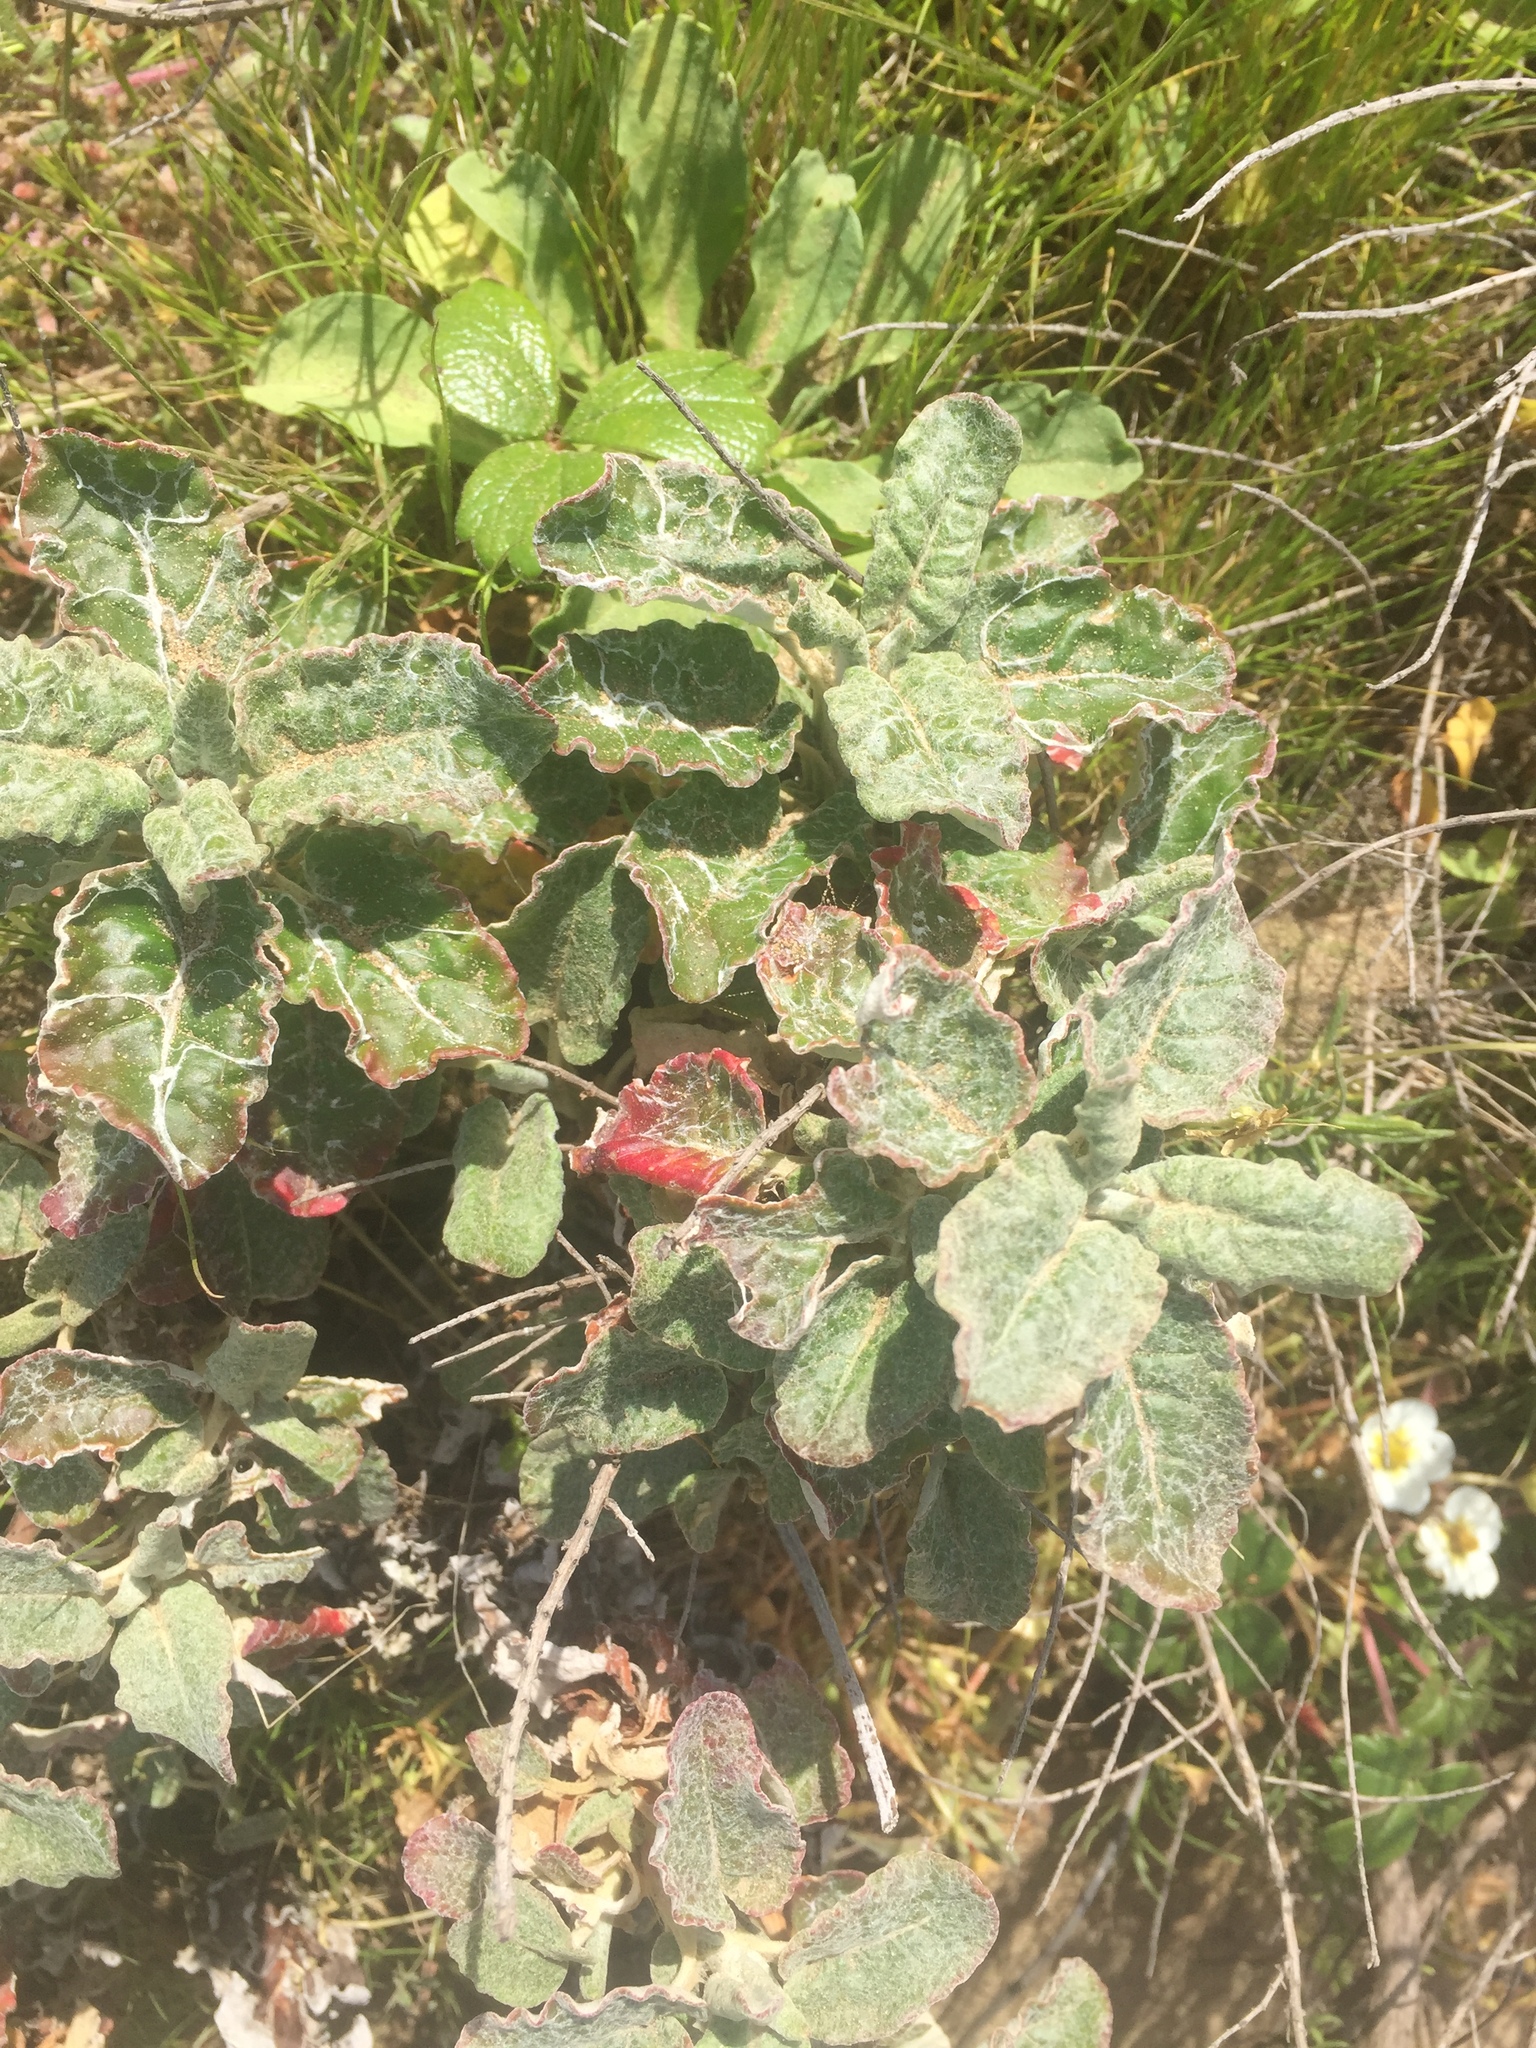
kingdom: Plantae
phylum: Tracheophyta
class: Magnoliopsida
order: Caryophyllales
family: Polygonaceae
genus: Eriogonum
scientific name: Eriogonum latifolium
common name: Seaside wild buckwheat
